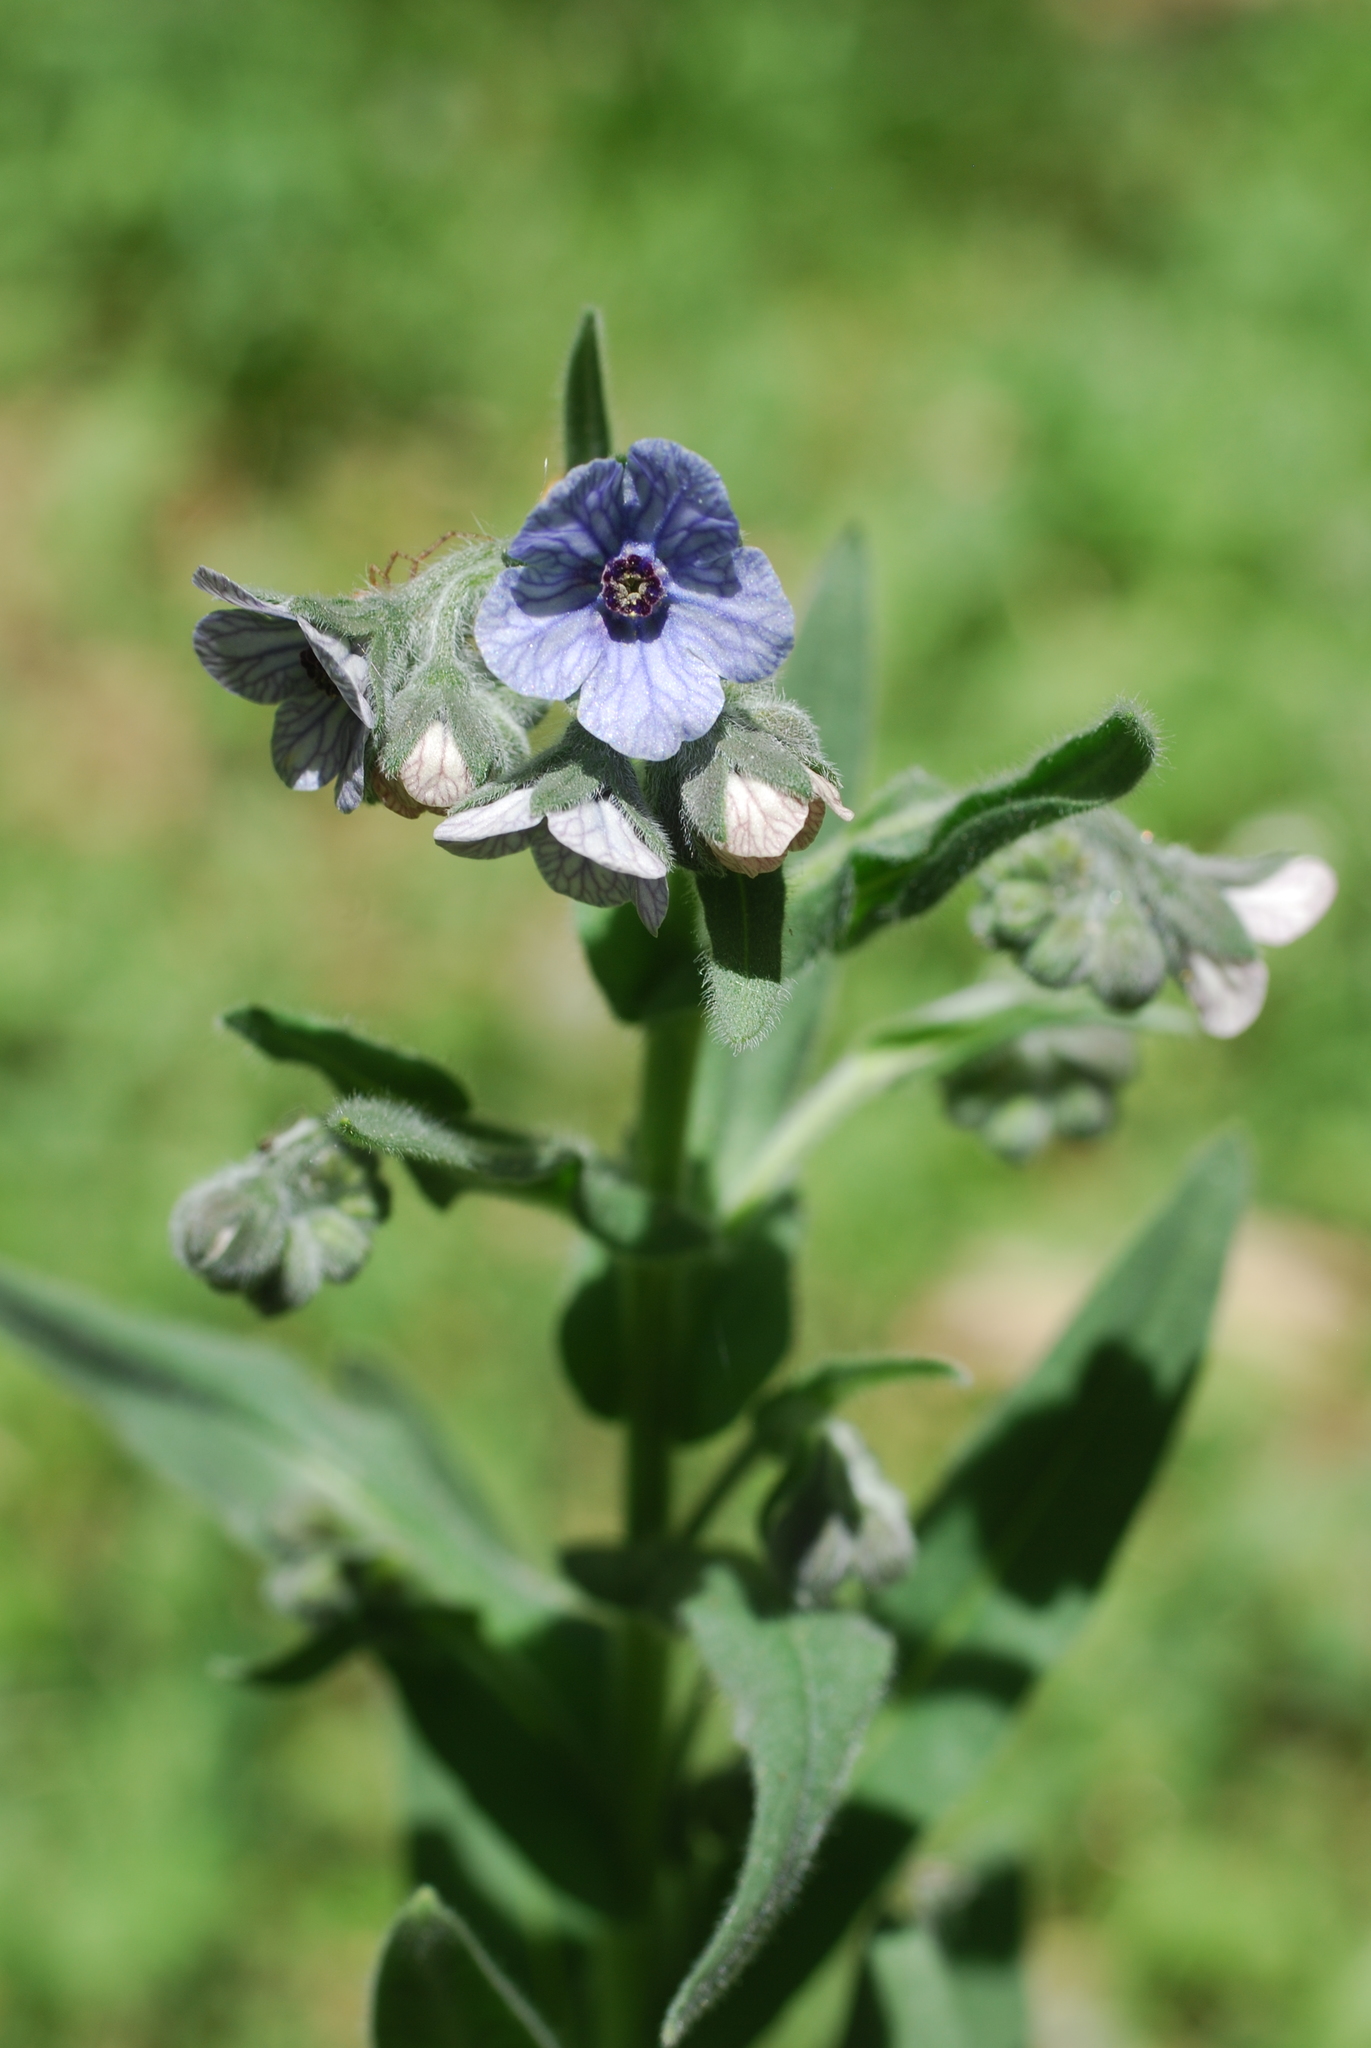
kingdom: Plantae
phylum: Tracheophyta
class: Magnoliopsida
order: Boraginales
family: Boraginaceae
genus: Cynoglossum
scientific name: Cynoglossum creticum
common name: Blue hound's tongue
